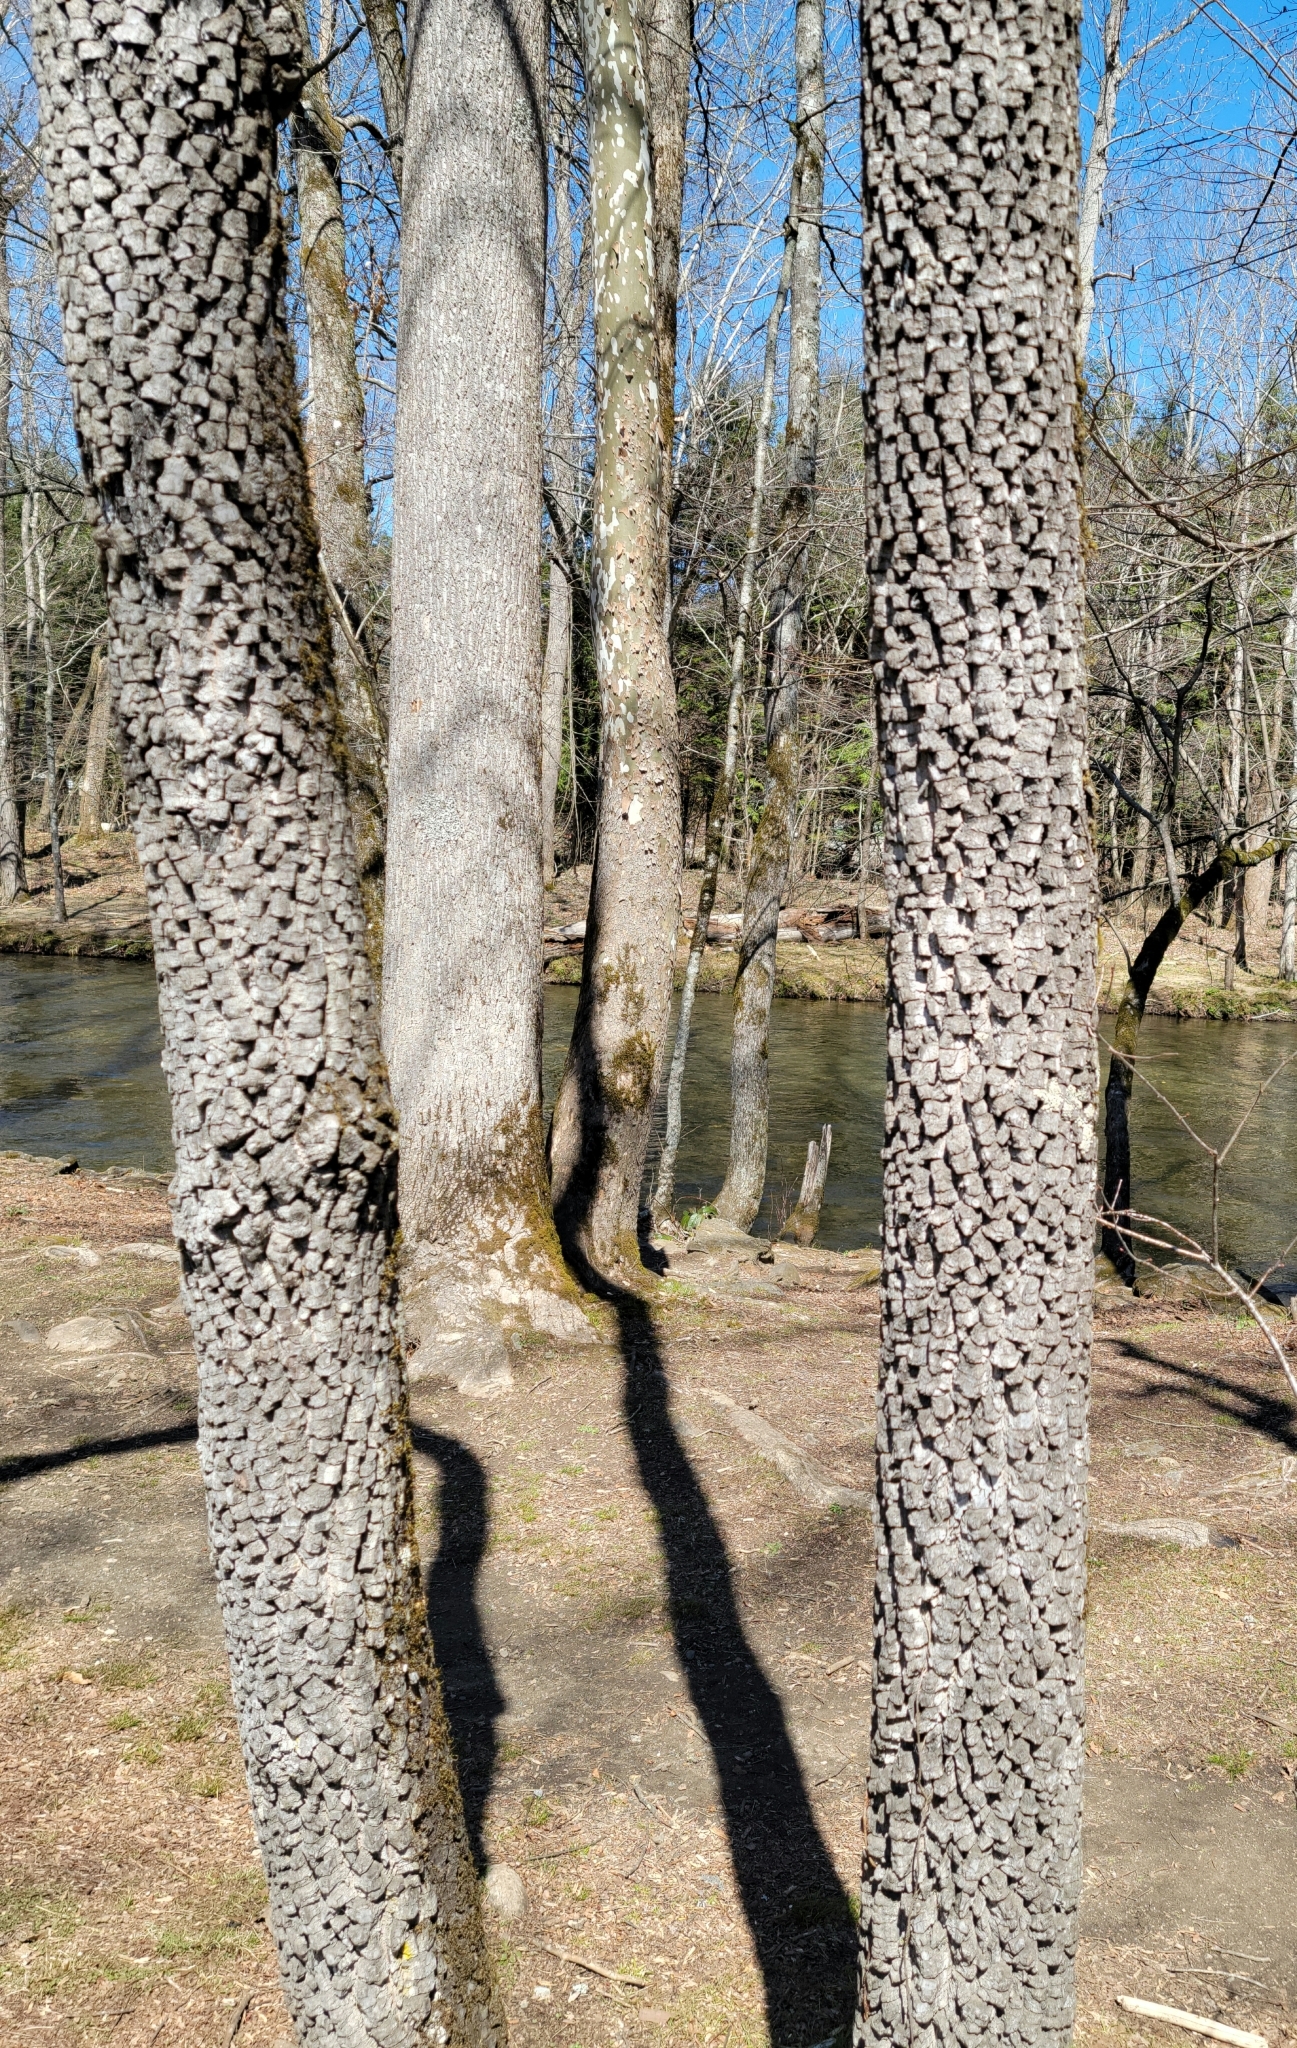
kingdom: Plantae
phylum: Tracheophyta
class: Magnoliopsida
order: Ericales
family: Ebenaceae
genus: Diospyros
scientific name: Diospyros virginiana
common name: Persimmon
